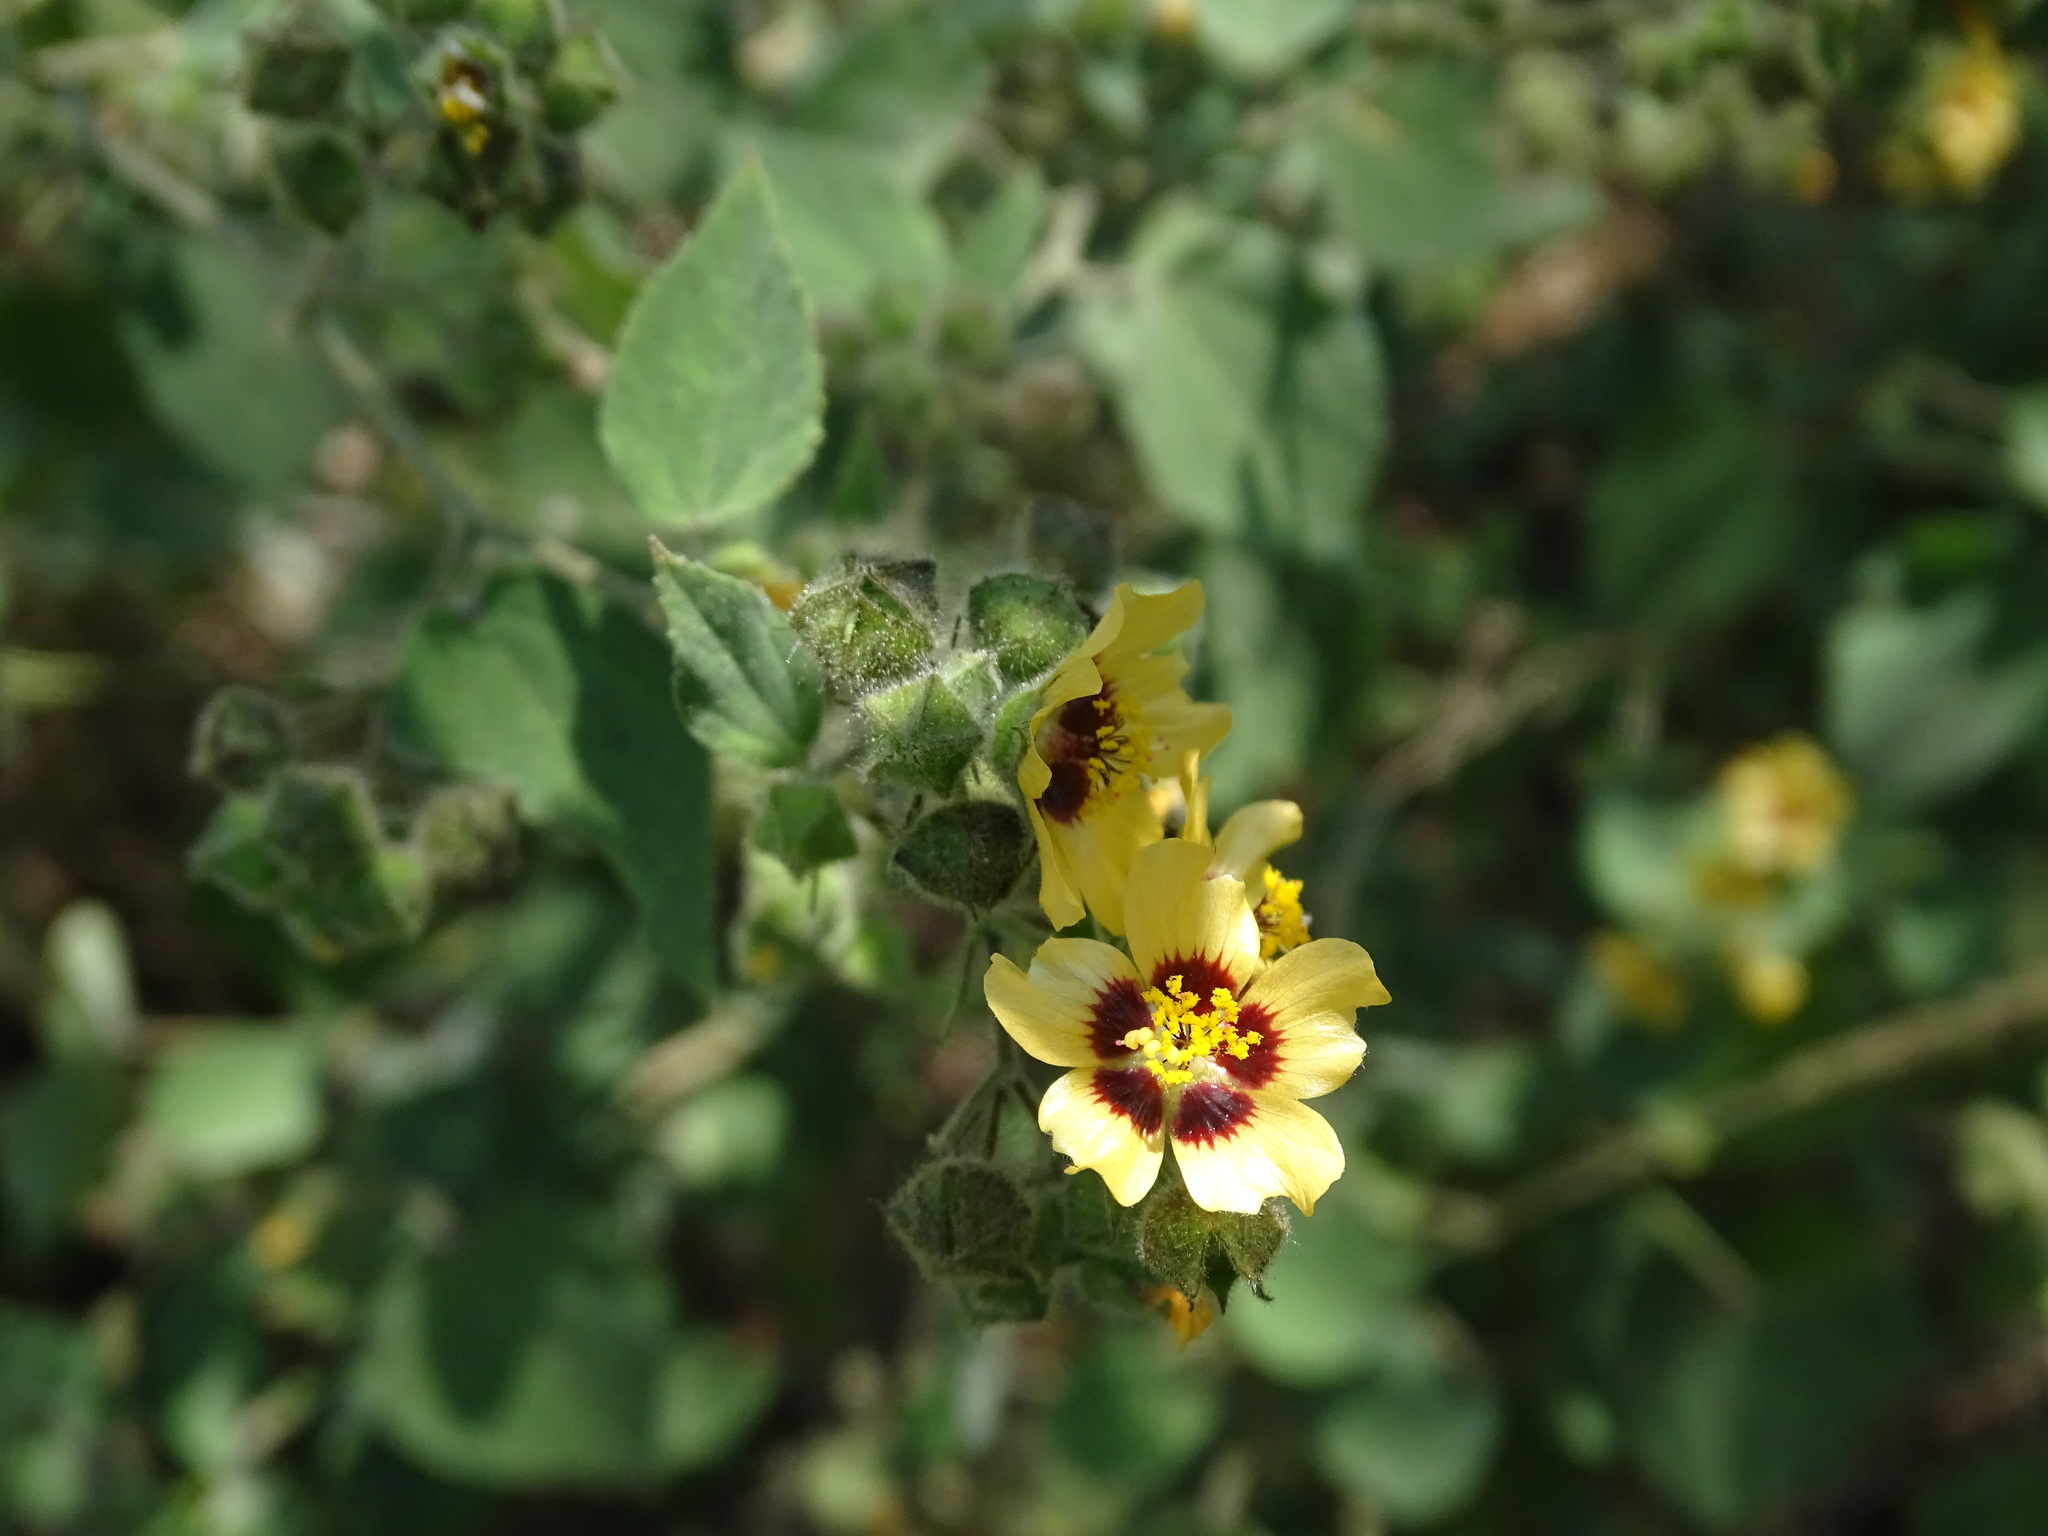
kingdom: Plantae
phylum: Tracheophyta
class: Magnoliopsida
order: Malvales
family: Malvaceae
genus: Allosidastrum
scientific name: Allosidastrum hilarianum
